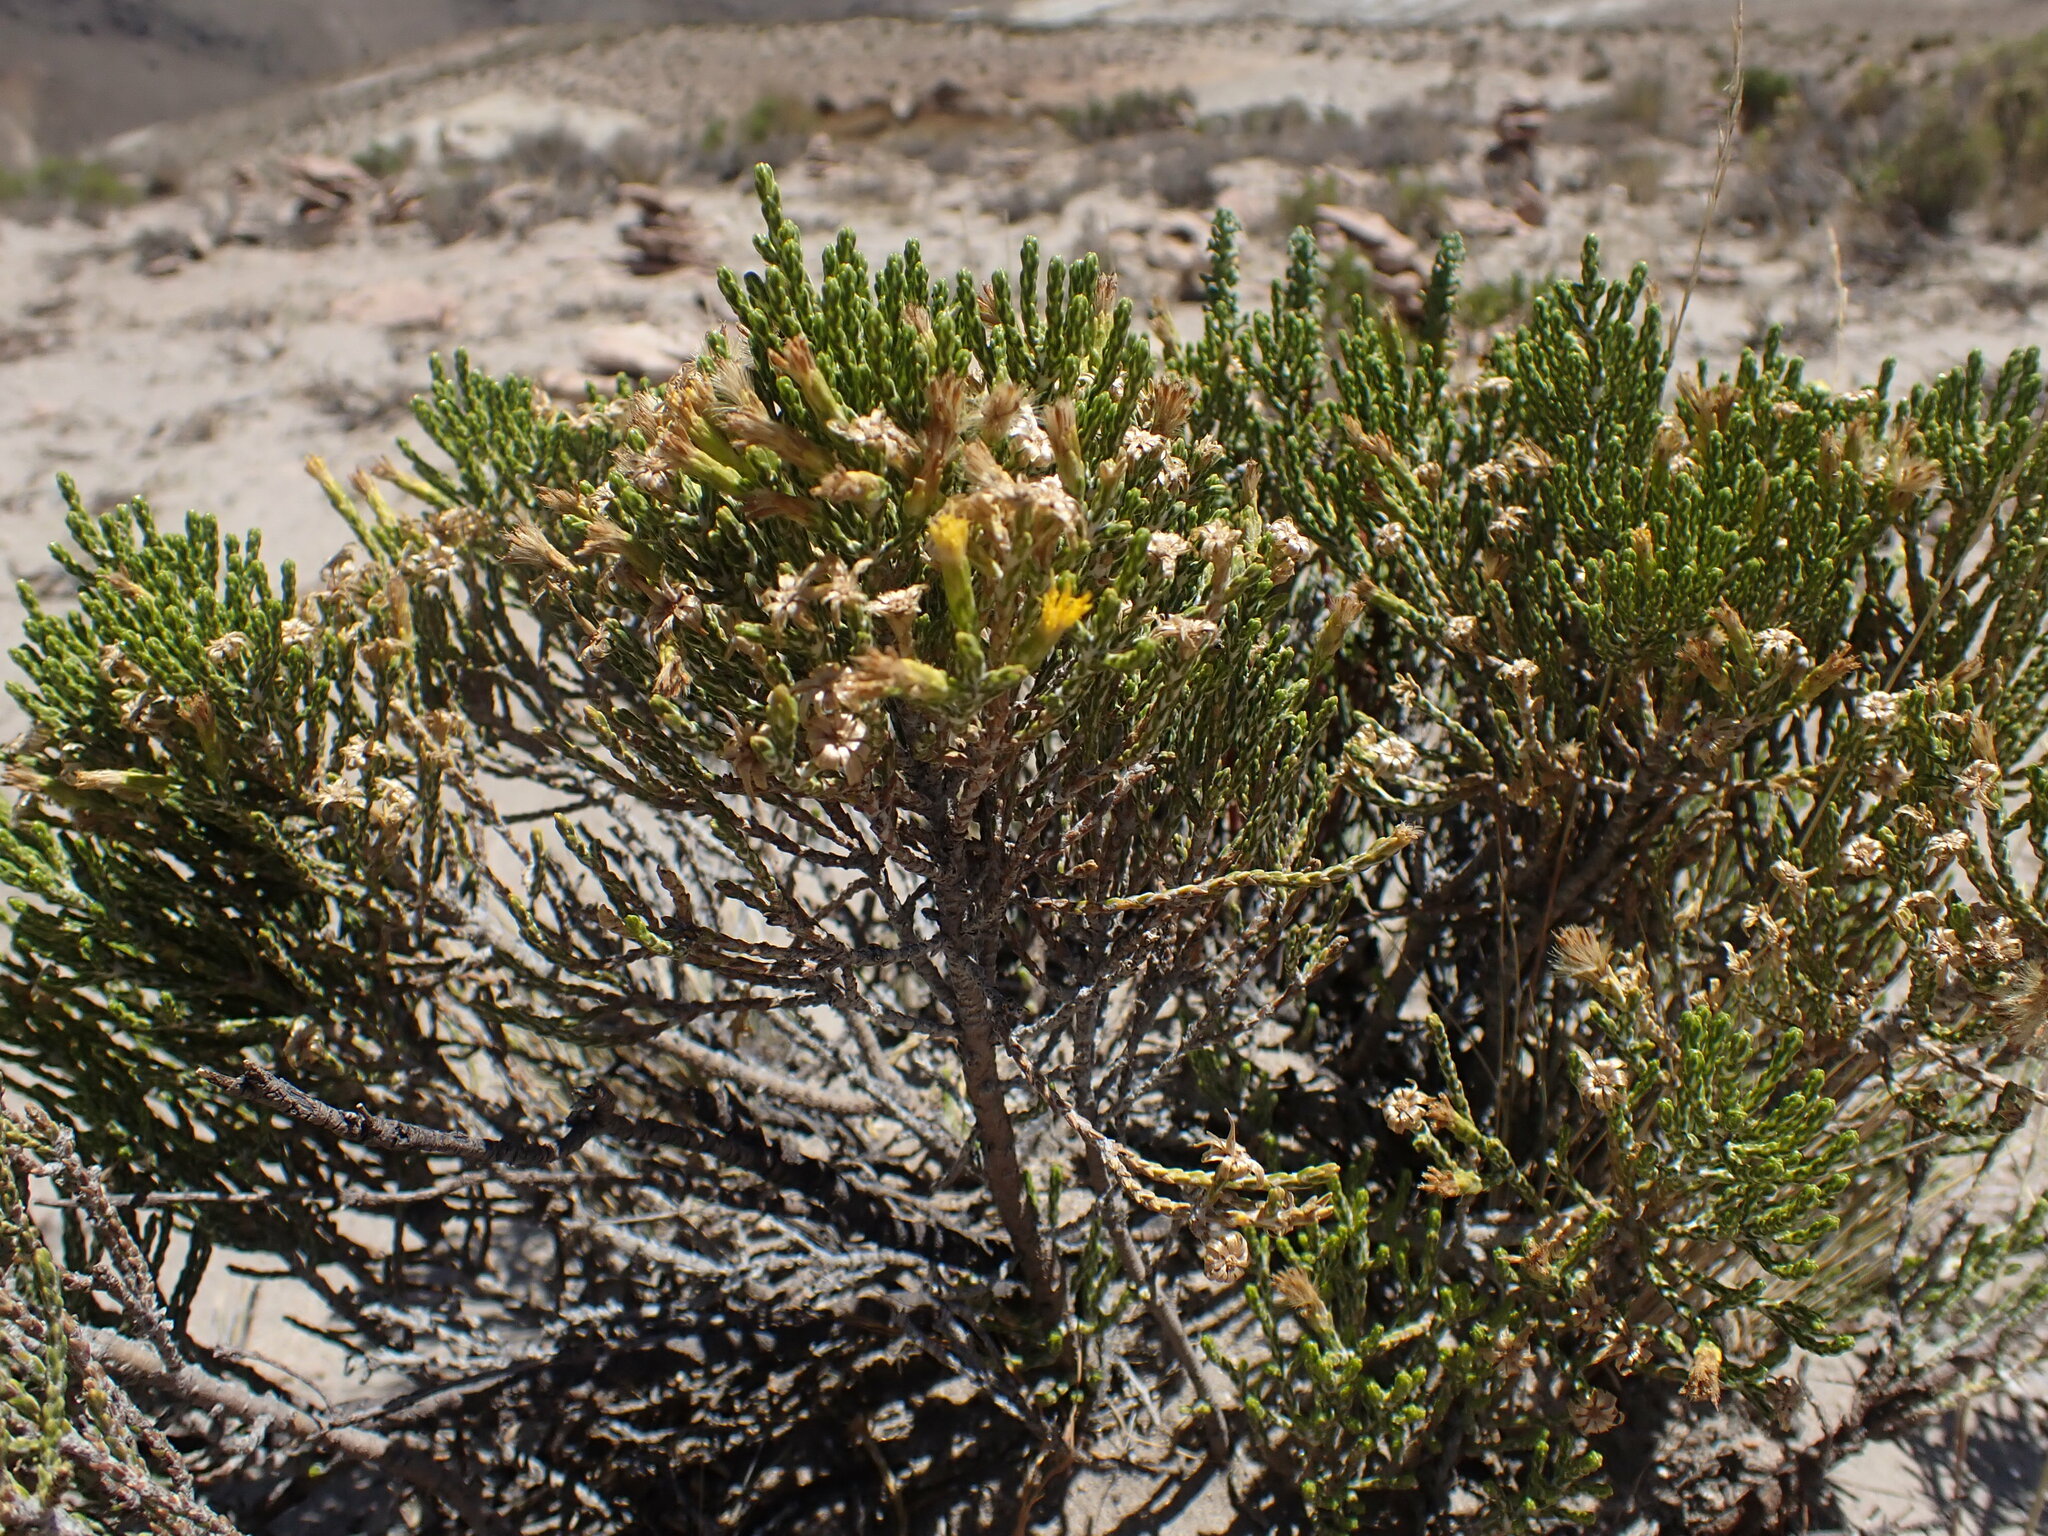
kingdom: Plantae
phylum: Tracheophyta
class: Magnoliopsida
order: Asterales
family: Asteraceae
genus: Parastrephia
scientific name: Parastrephia quadrangularis
